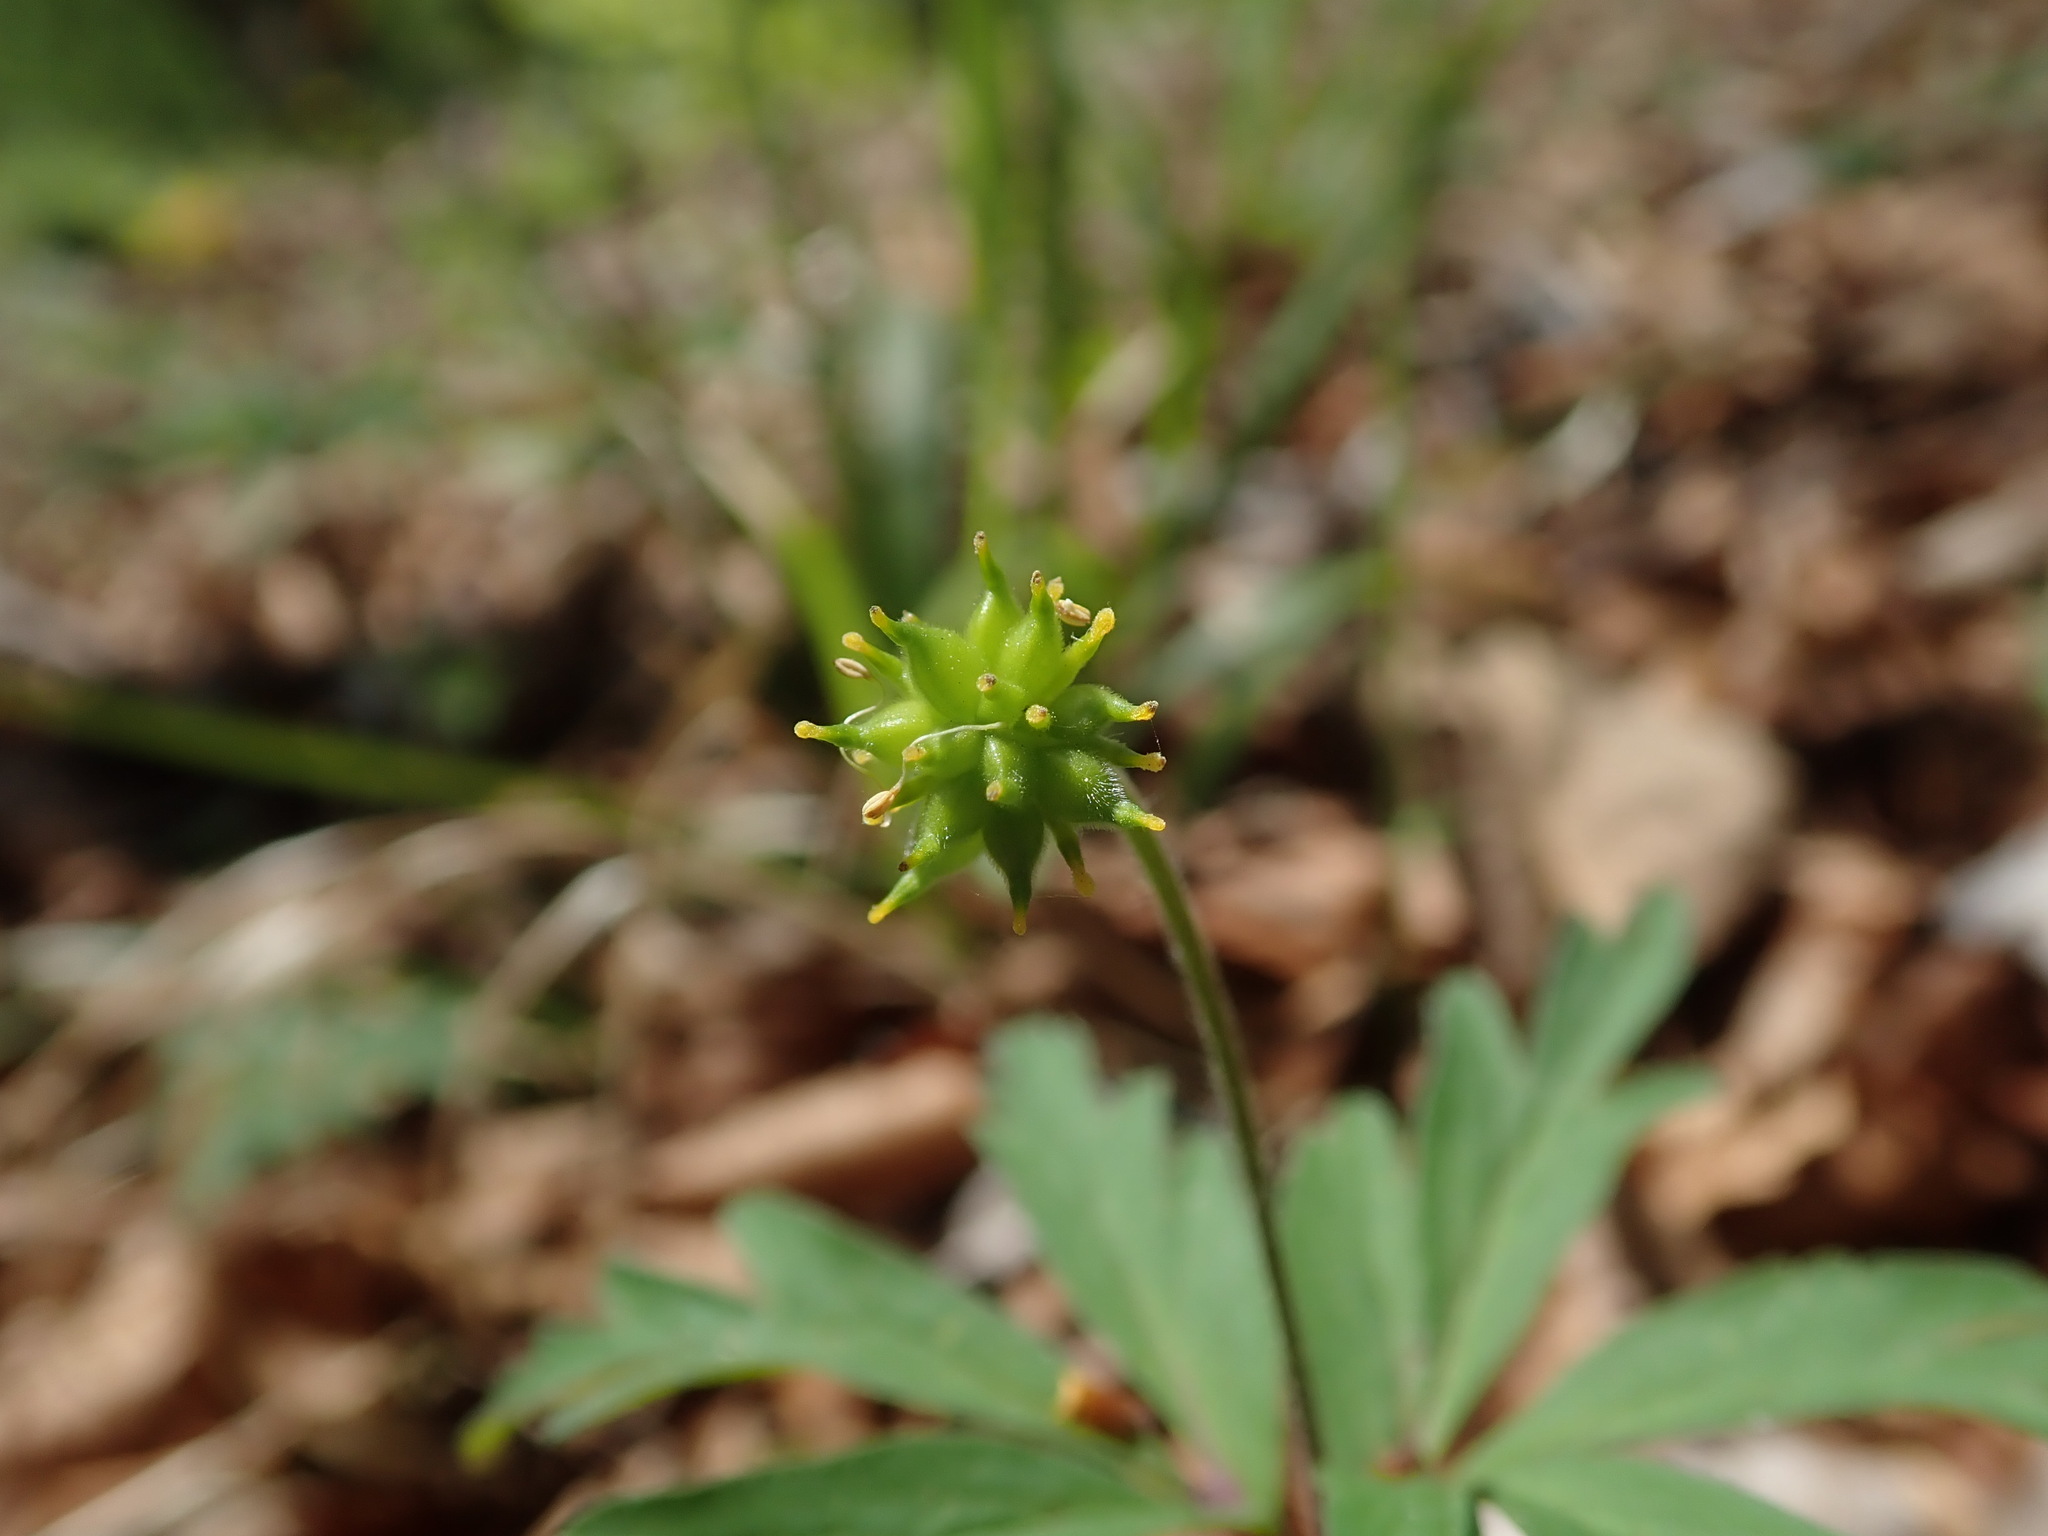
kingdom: Plantae
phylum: Tracheophyta
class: Magnoliopsida
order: Ranunculales
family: Ranunculaceae
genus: Anemone
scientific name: Anemone ranunculoides
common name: Yellow anemone
